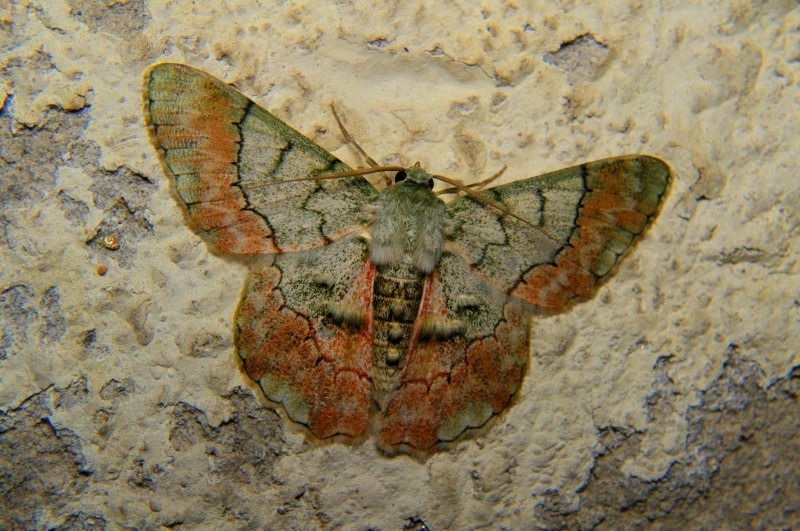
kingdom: Animalia
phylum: Arthropoda
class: Insecta
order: Lepidoptera
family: Geometridae
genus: Pingasa
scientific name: Pingasa rubicunda
